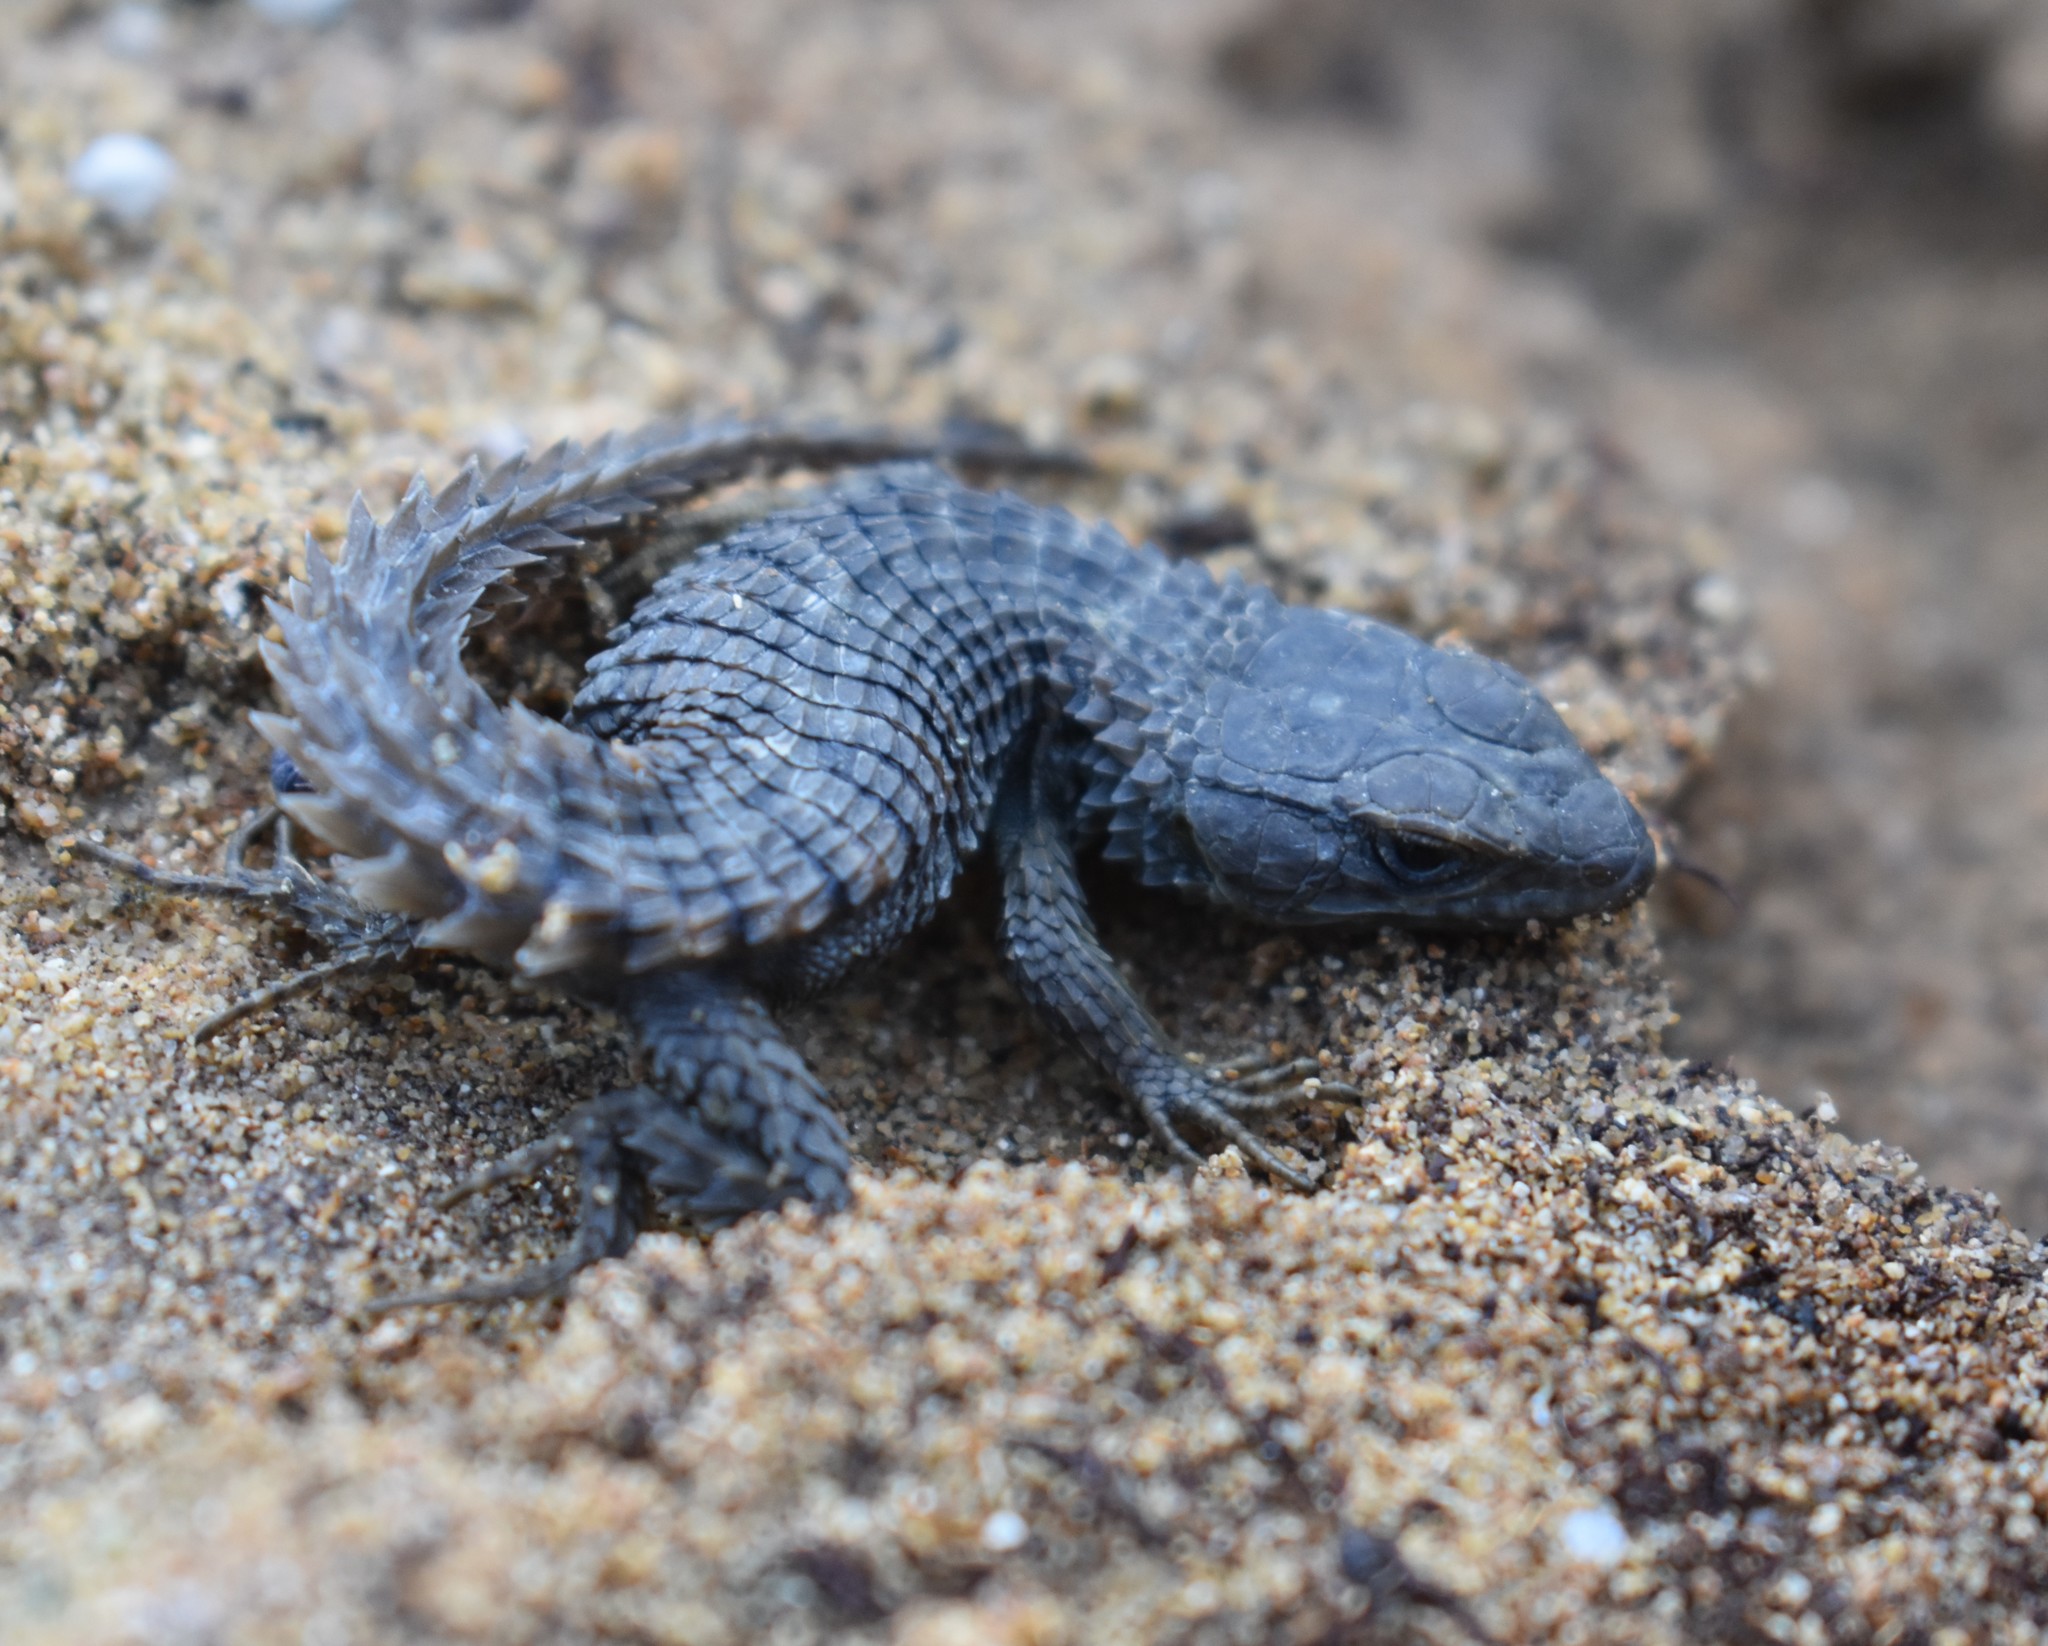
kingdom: Animalia
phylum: Chordata
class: Squamata
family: Cordylidae
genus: Cordylus
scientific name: Cordylus cordylus
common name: Cape girdled lizard
